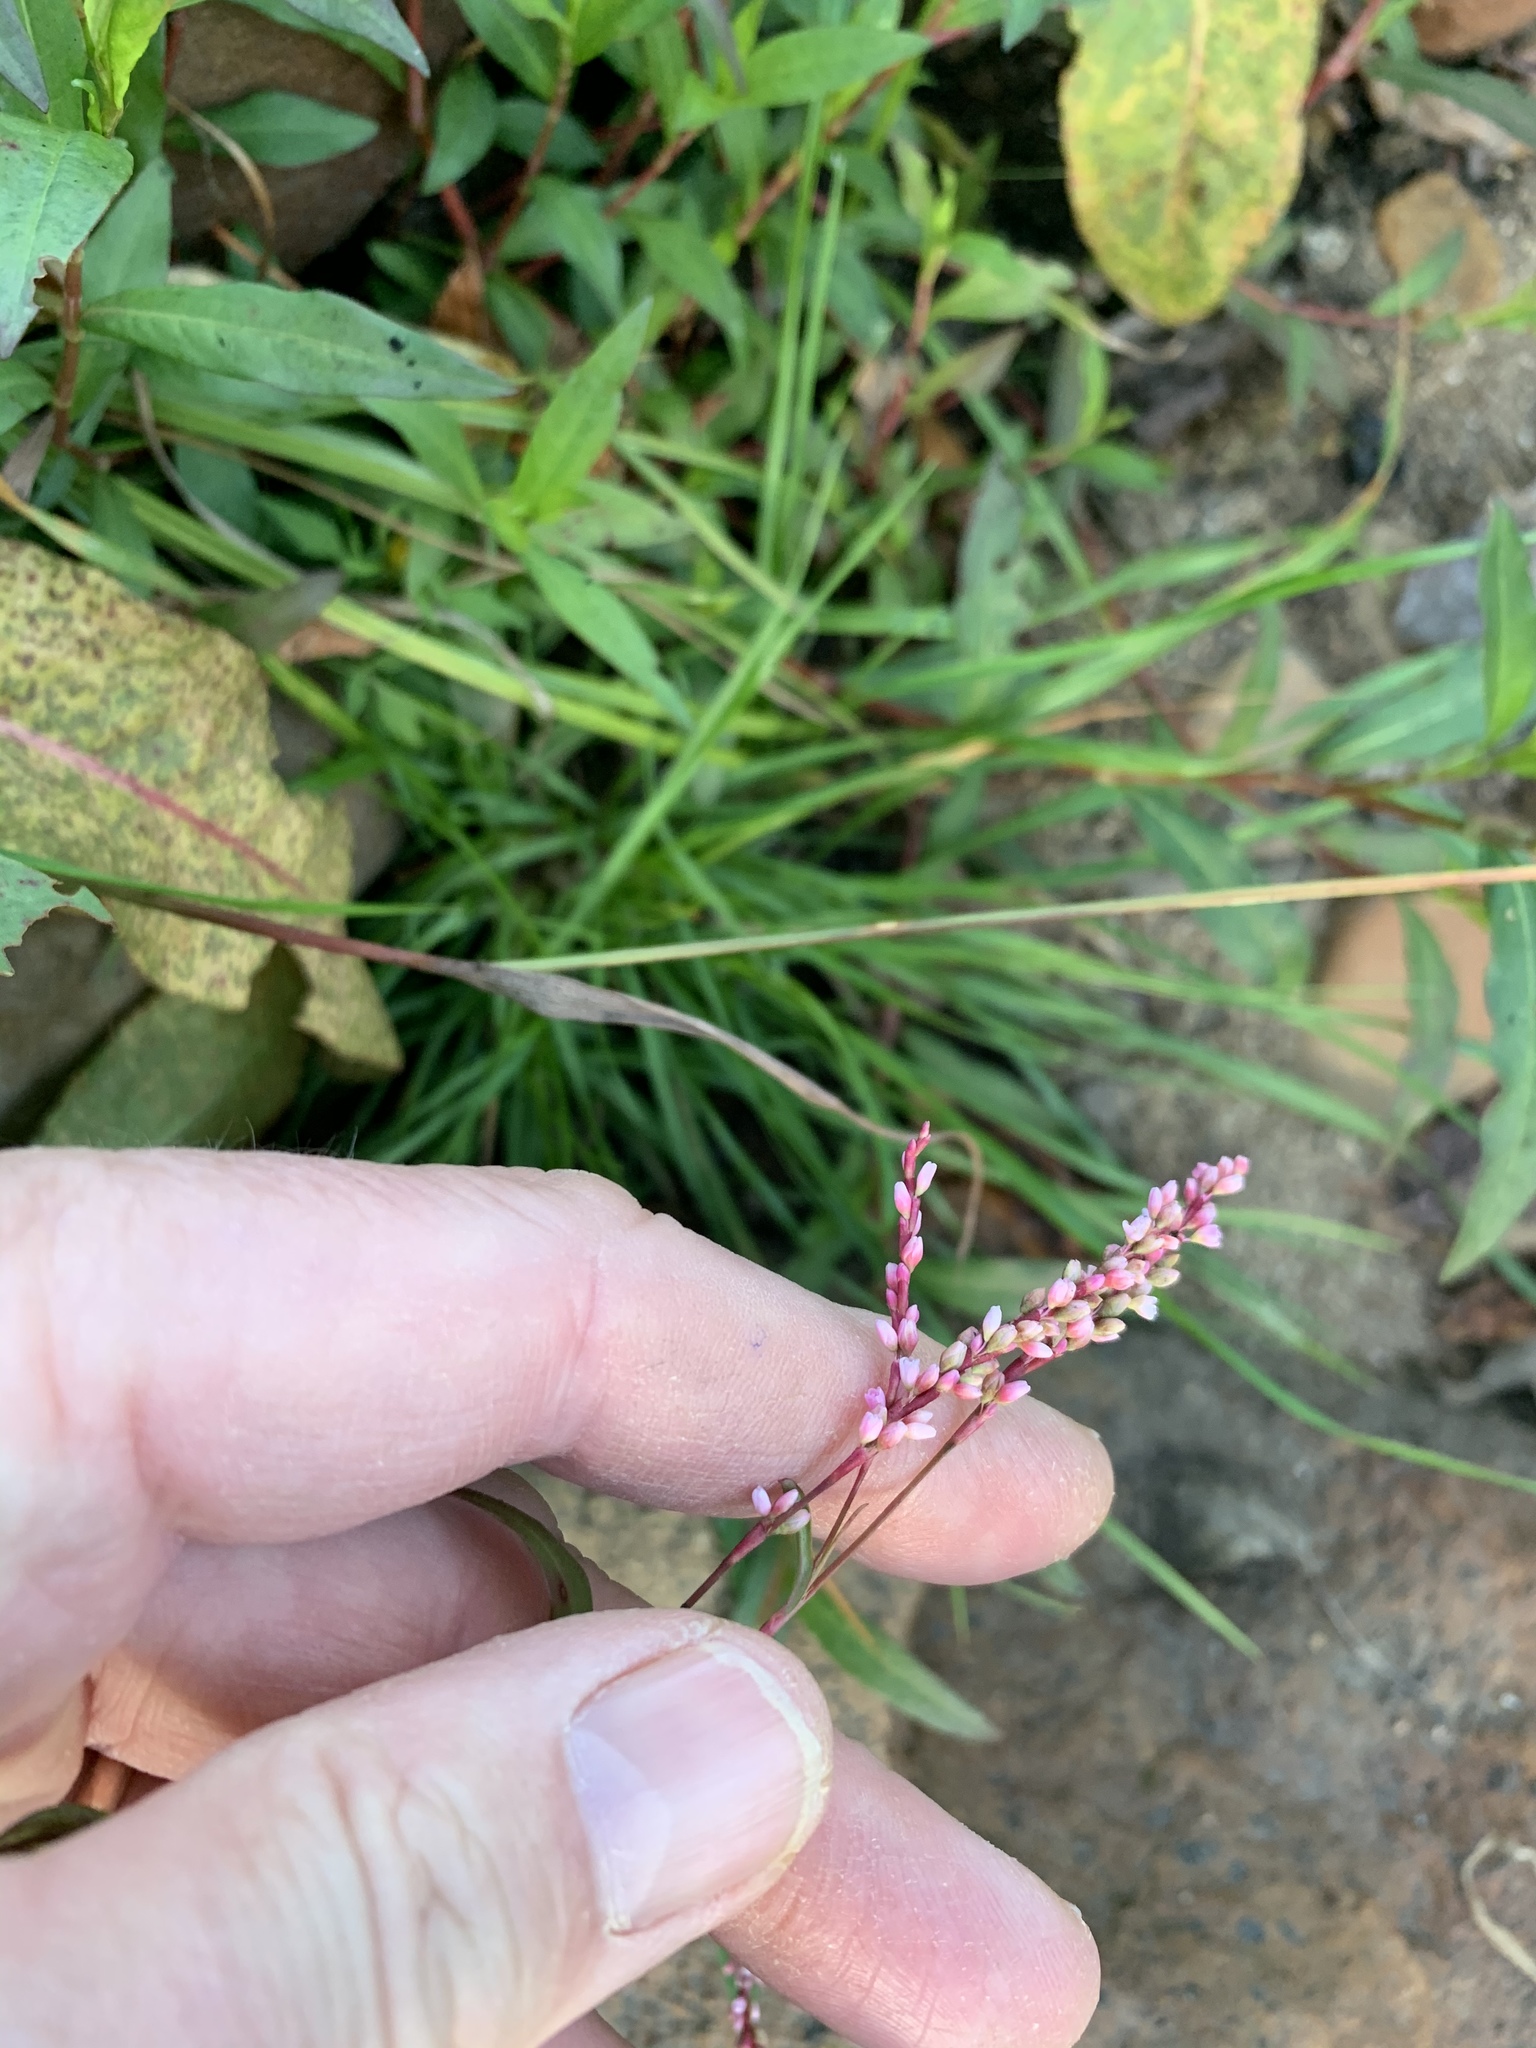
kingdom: Plantae
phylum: Tracheophyta
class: Magnoliopsida
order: Caryophyllales
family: Polygonaceae
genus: Persicaria
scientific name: Persicaria decipiens
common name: Willow-weed
